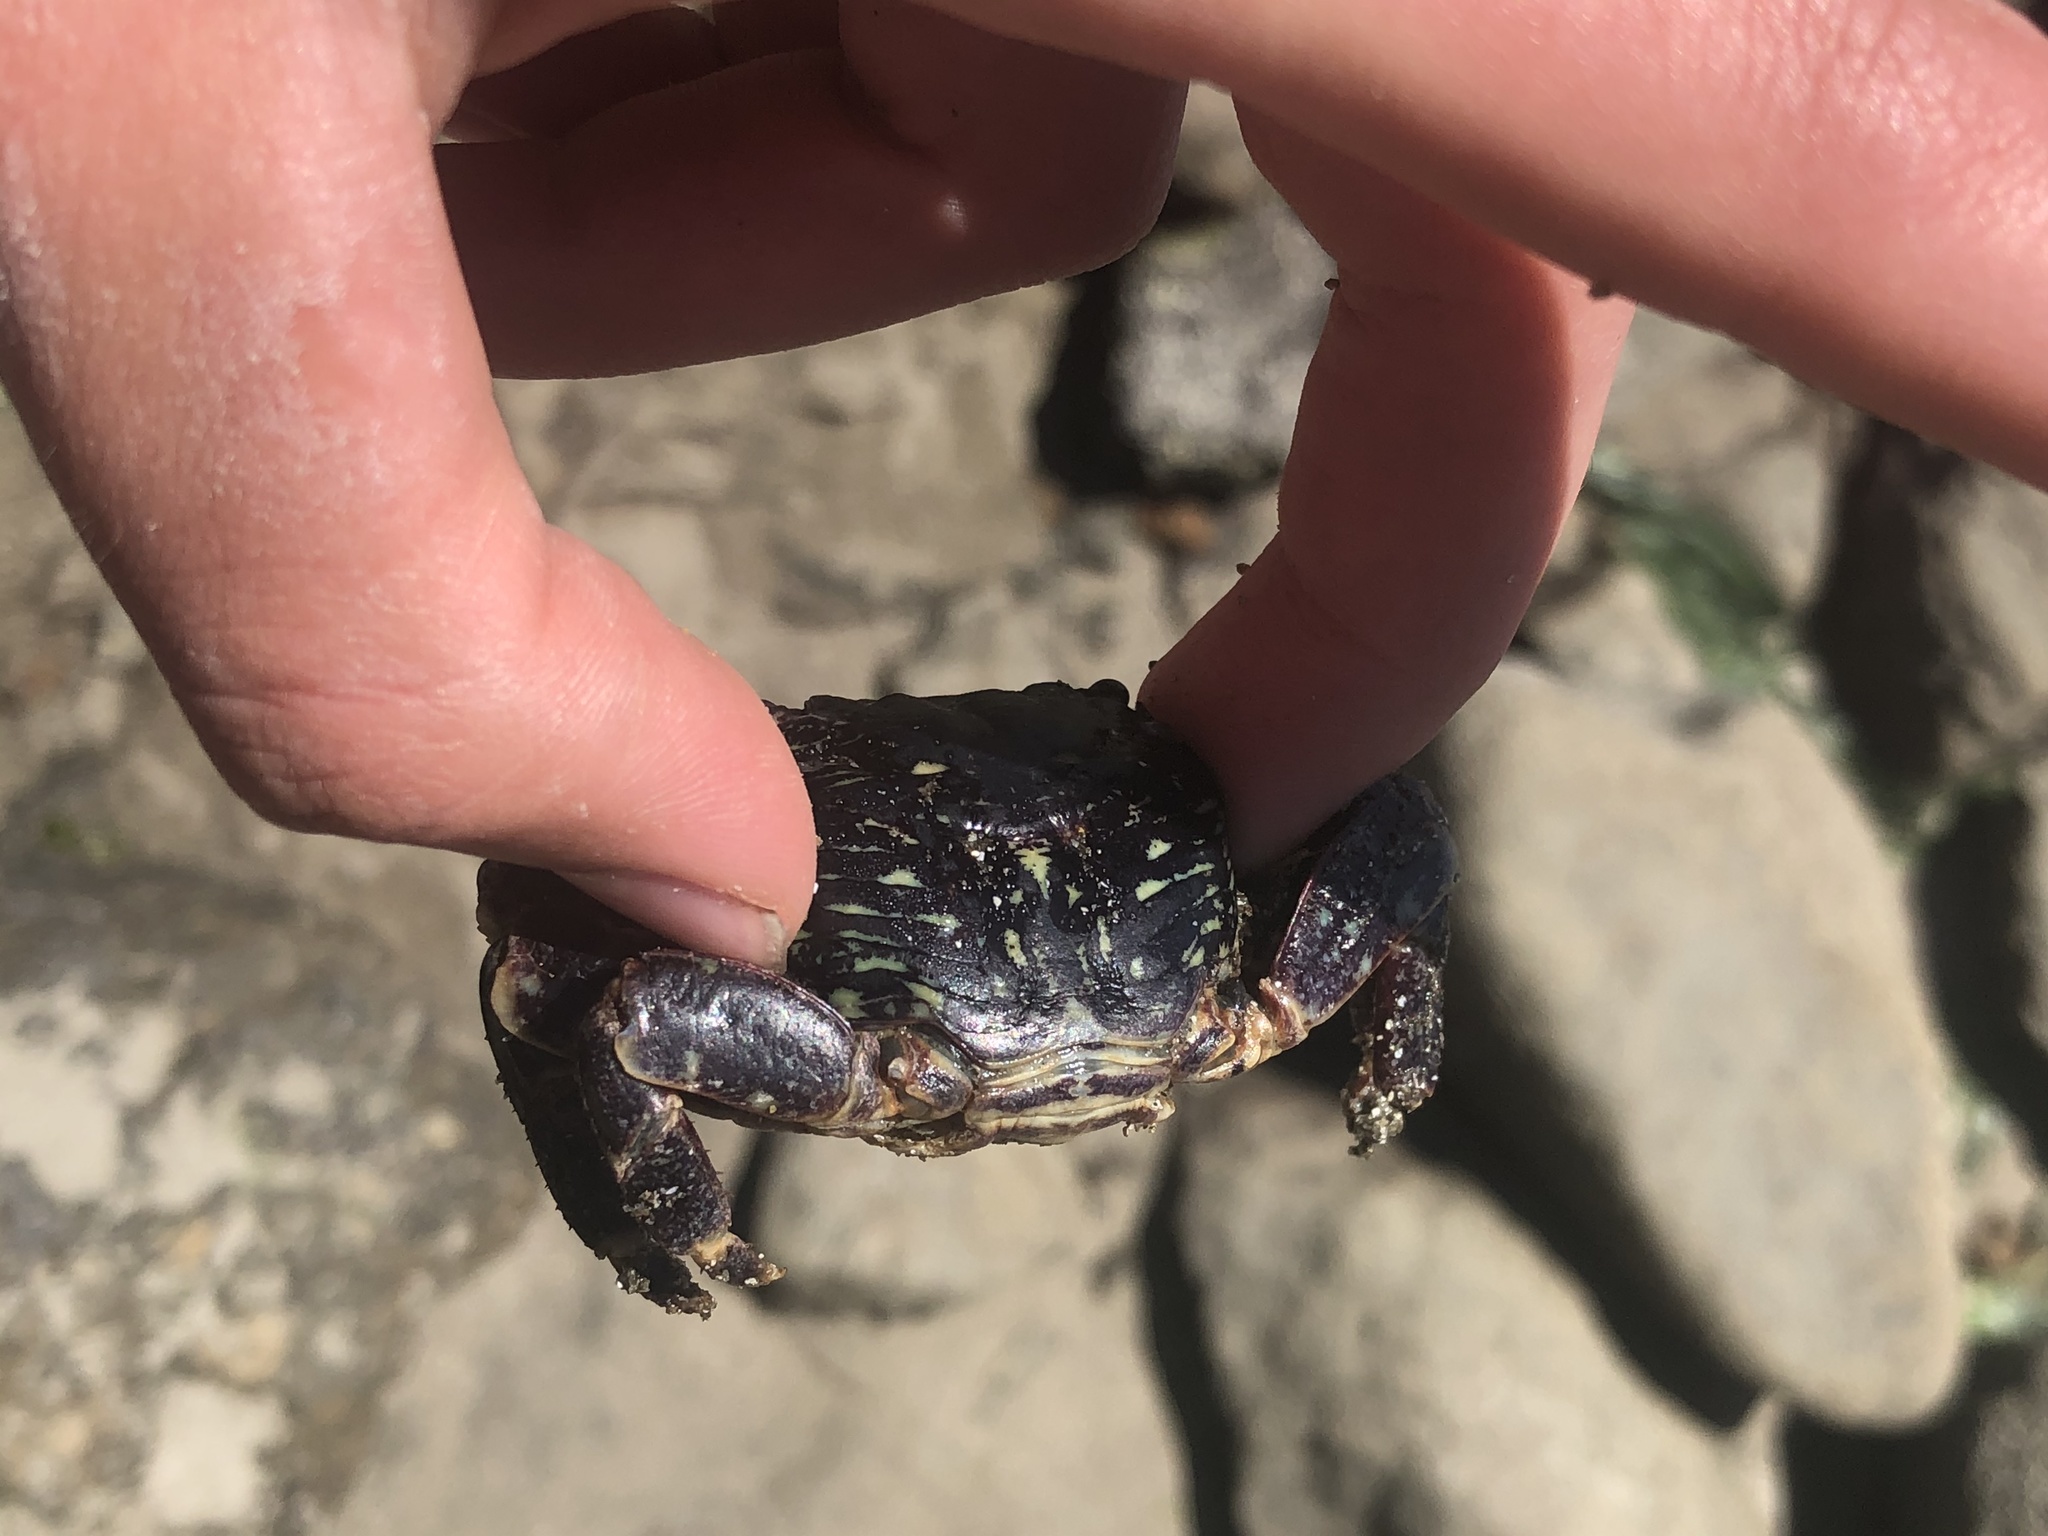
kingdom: Animalia
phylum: Arthropoda
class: Malacostraca
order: Decapoda
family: Grapsidae
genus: Pachygrapsus
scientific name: Pachygrapsus crassipes
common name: Striped shore crab
